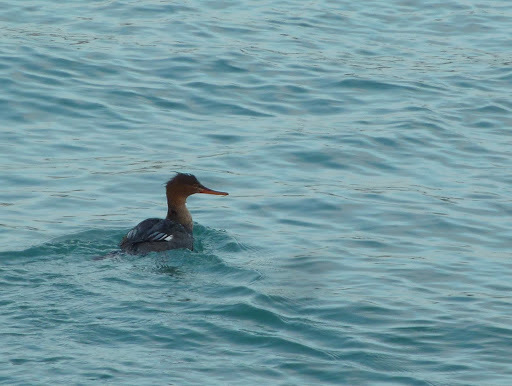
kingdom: Animalia
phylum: Chordata
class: Aves
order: Anseriformes
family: Anatidae
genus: Mergus
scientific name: Mergus serrator
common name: Red-breasted merganser
